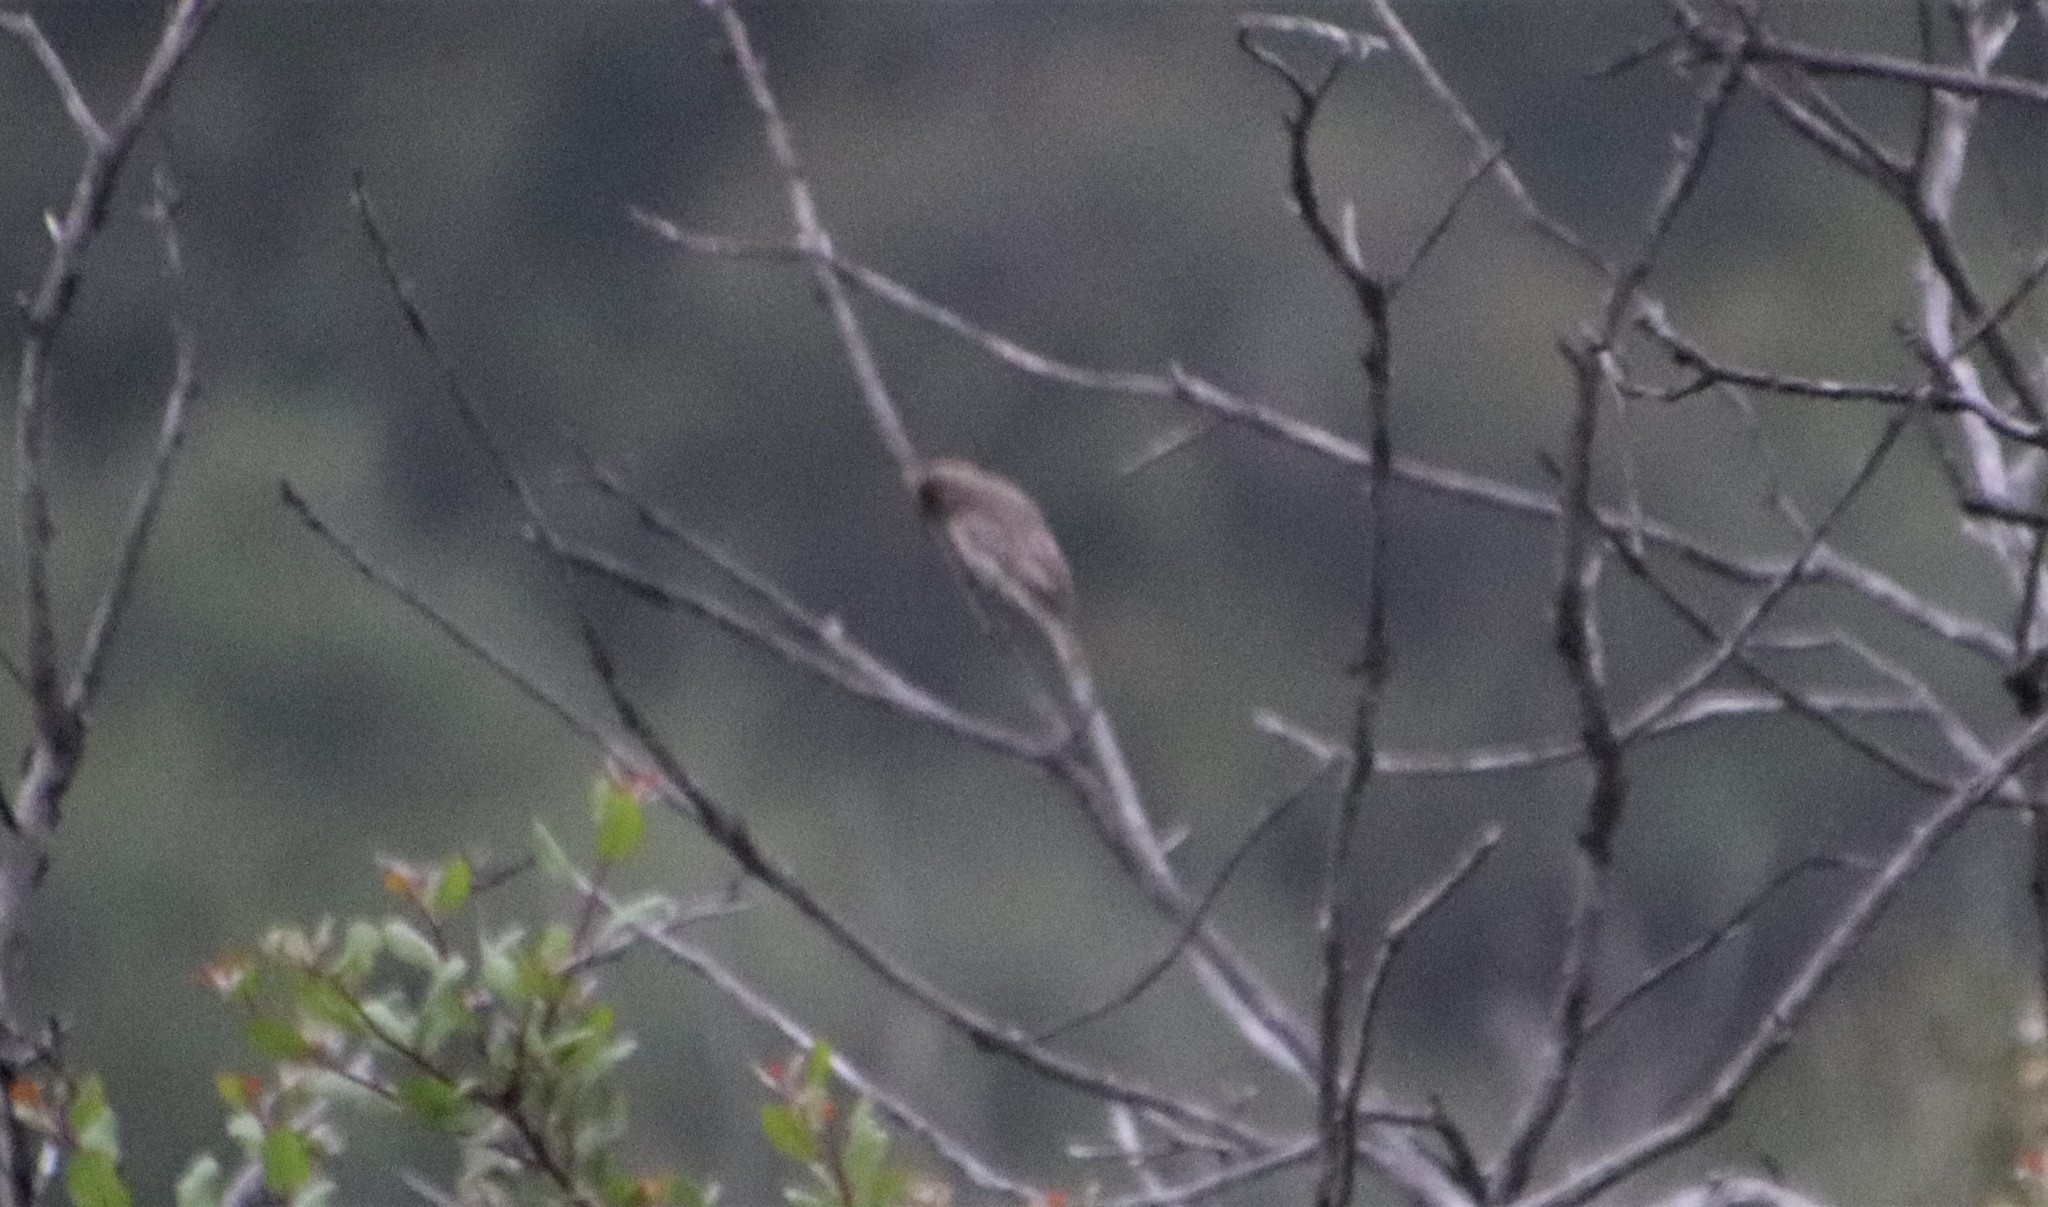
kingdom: Animalia
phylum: Chordata
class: Aves
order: Passeriformes
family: Fringillidae
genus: Haemorhous
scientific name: Haemorhous mexicanus
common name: House finch
